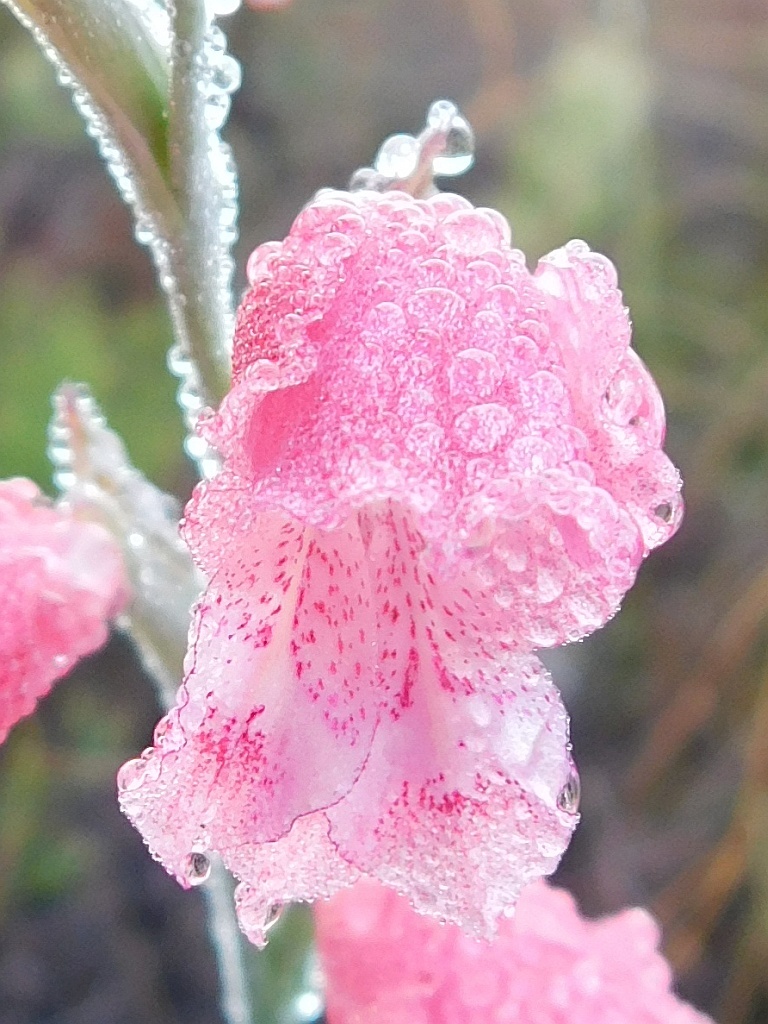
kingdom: Plantae
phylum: Tracheophyta
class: Liliopsida
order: Asparagales
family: Iridaceae
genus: Gladiolus
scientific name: Gladiolus brevifolius
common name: March pypie
